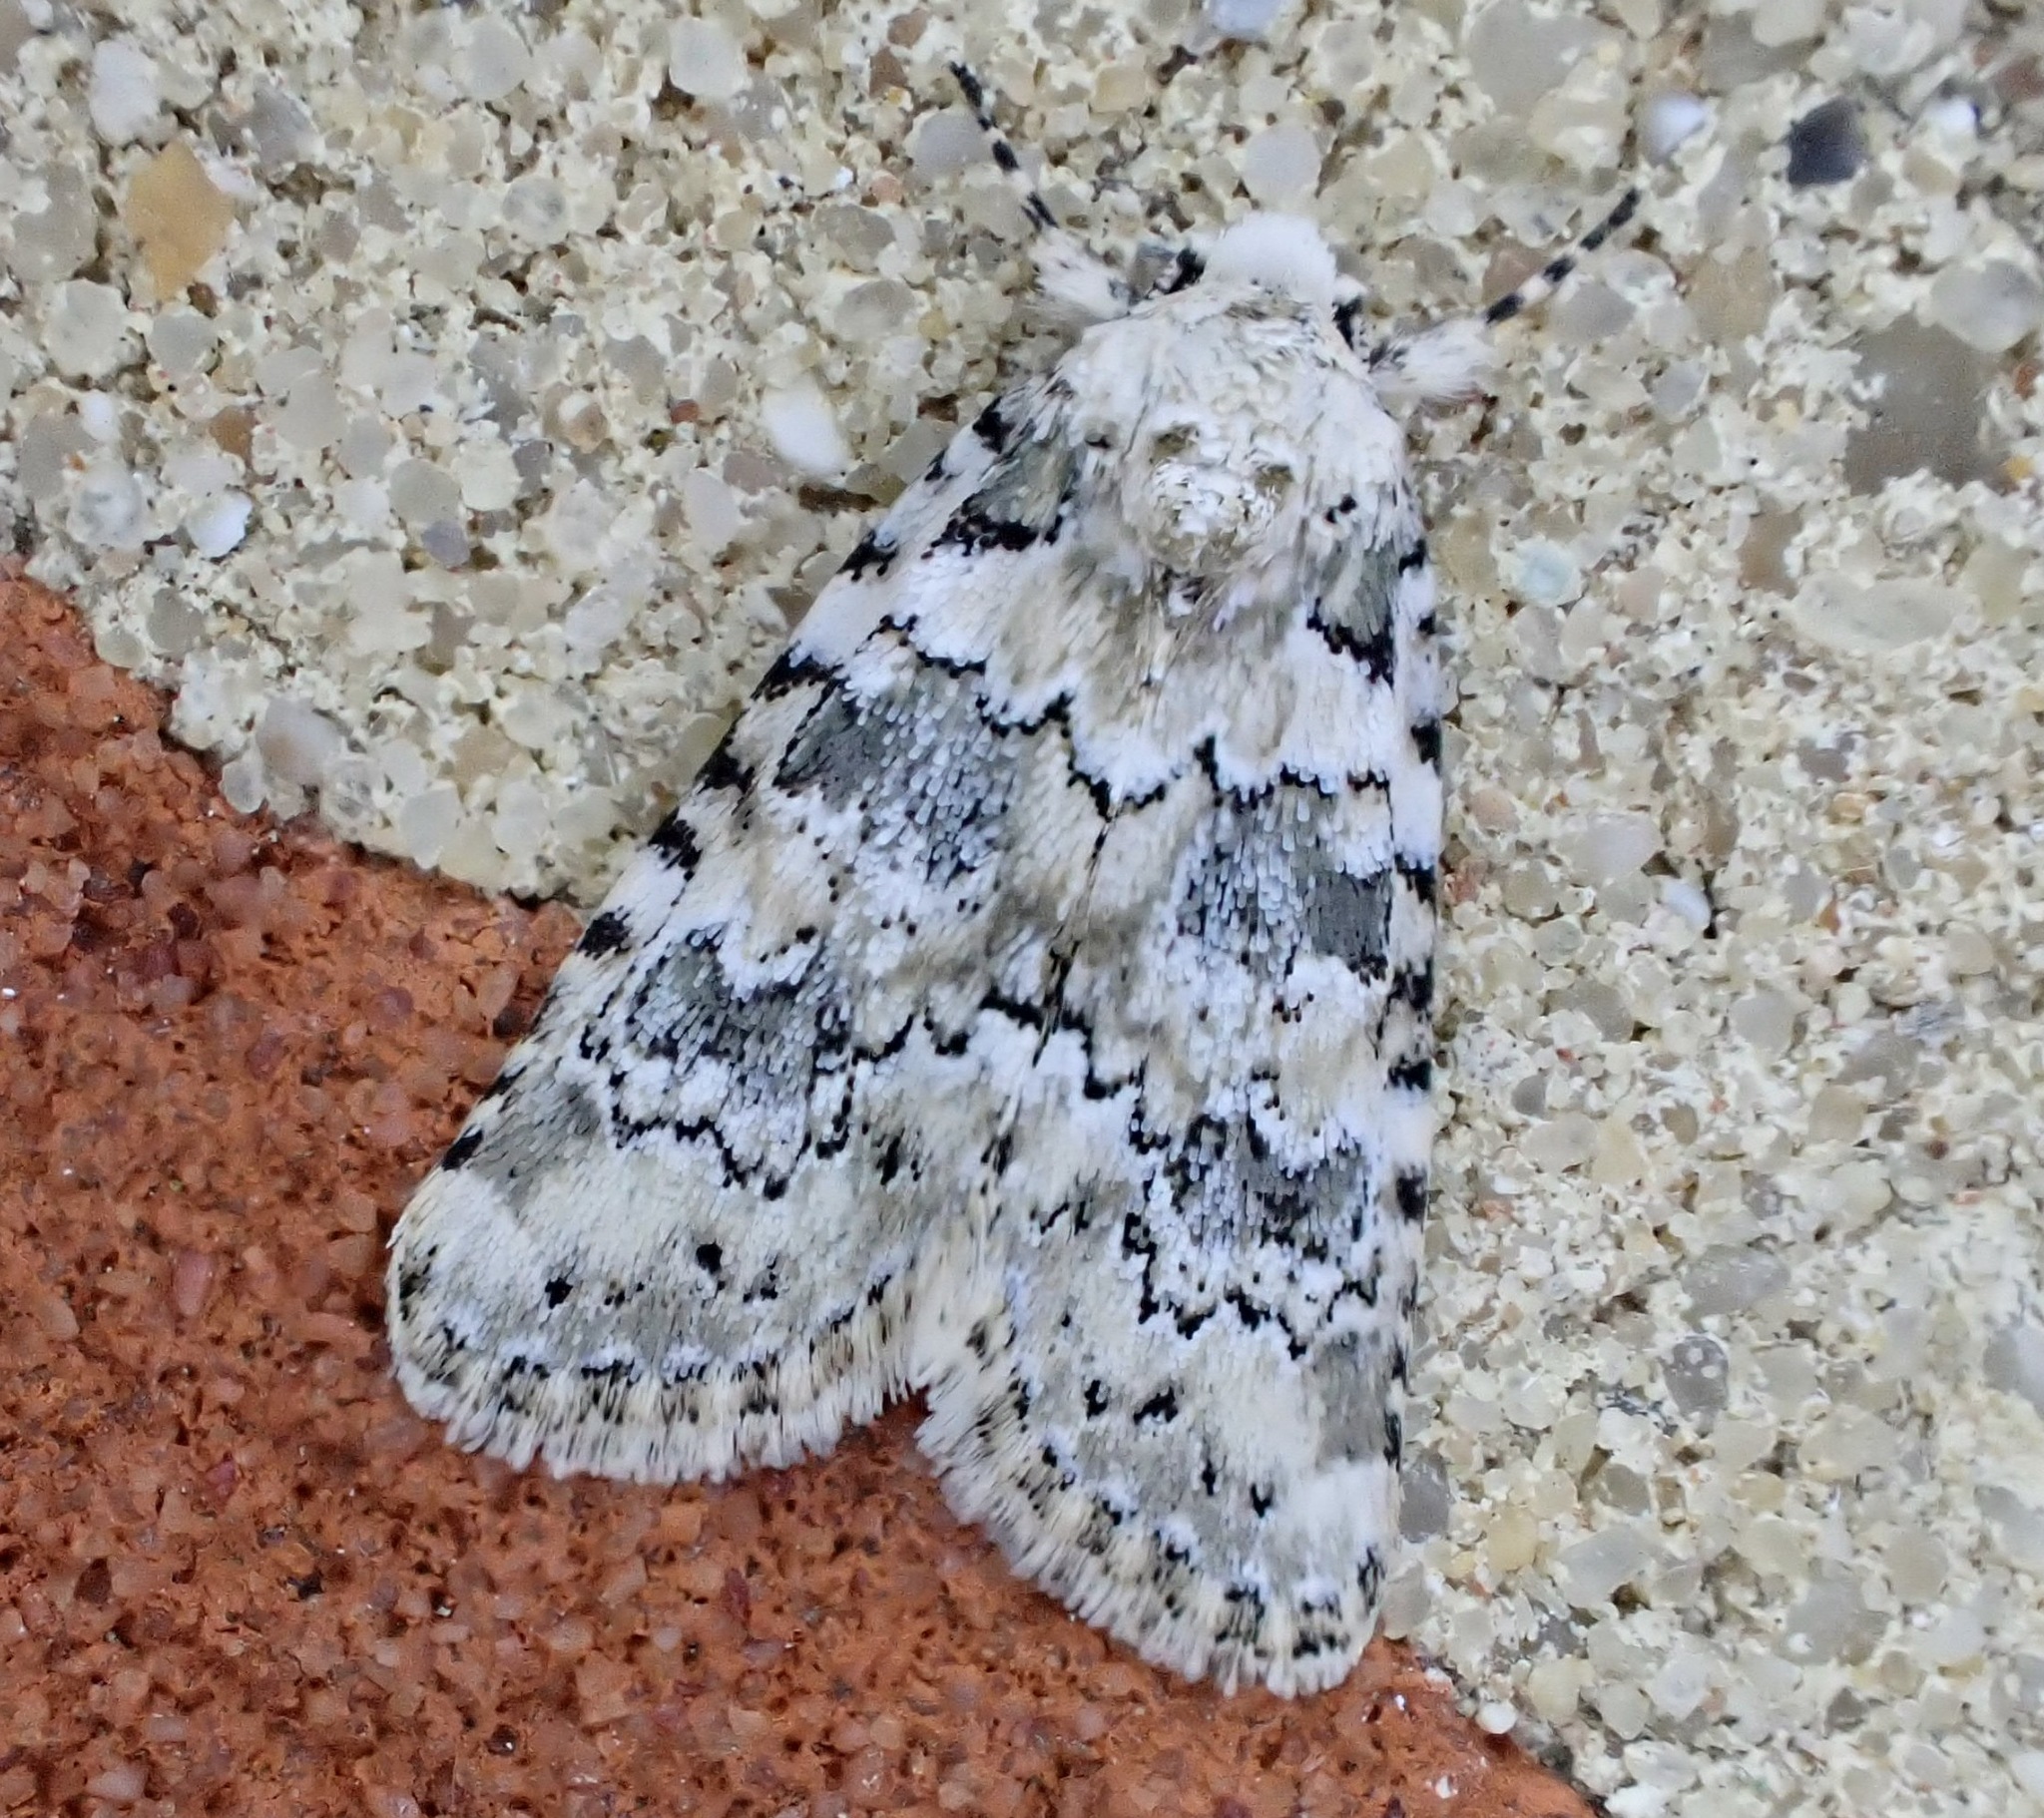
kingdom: Animalia
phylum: Arthropoda
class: Insecta
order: Lepidoptera
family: Noctuidae
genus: Bryophila
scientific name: Bryophila domestica
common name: Marbled beauty
